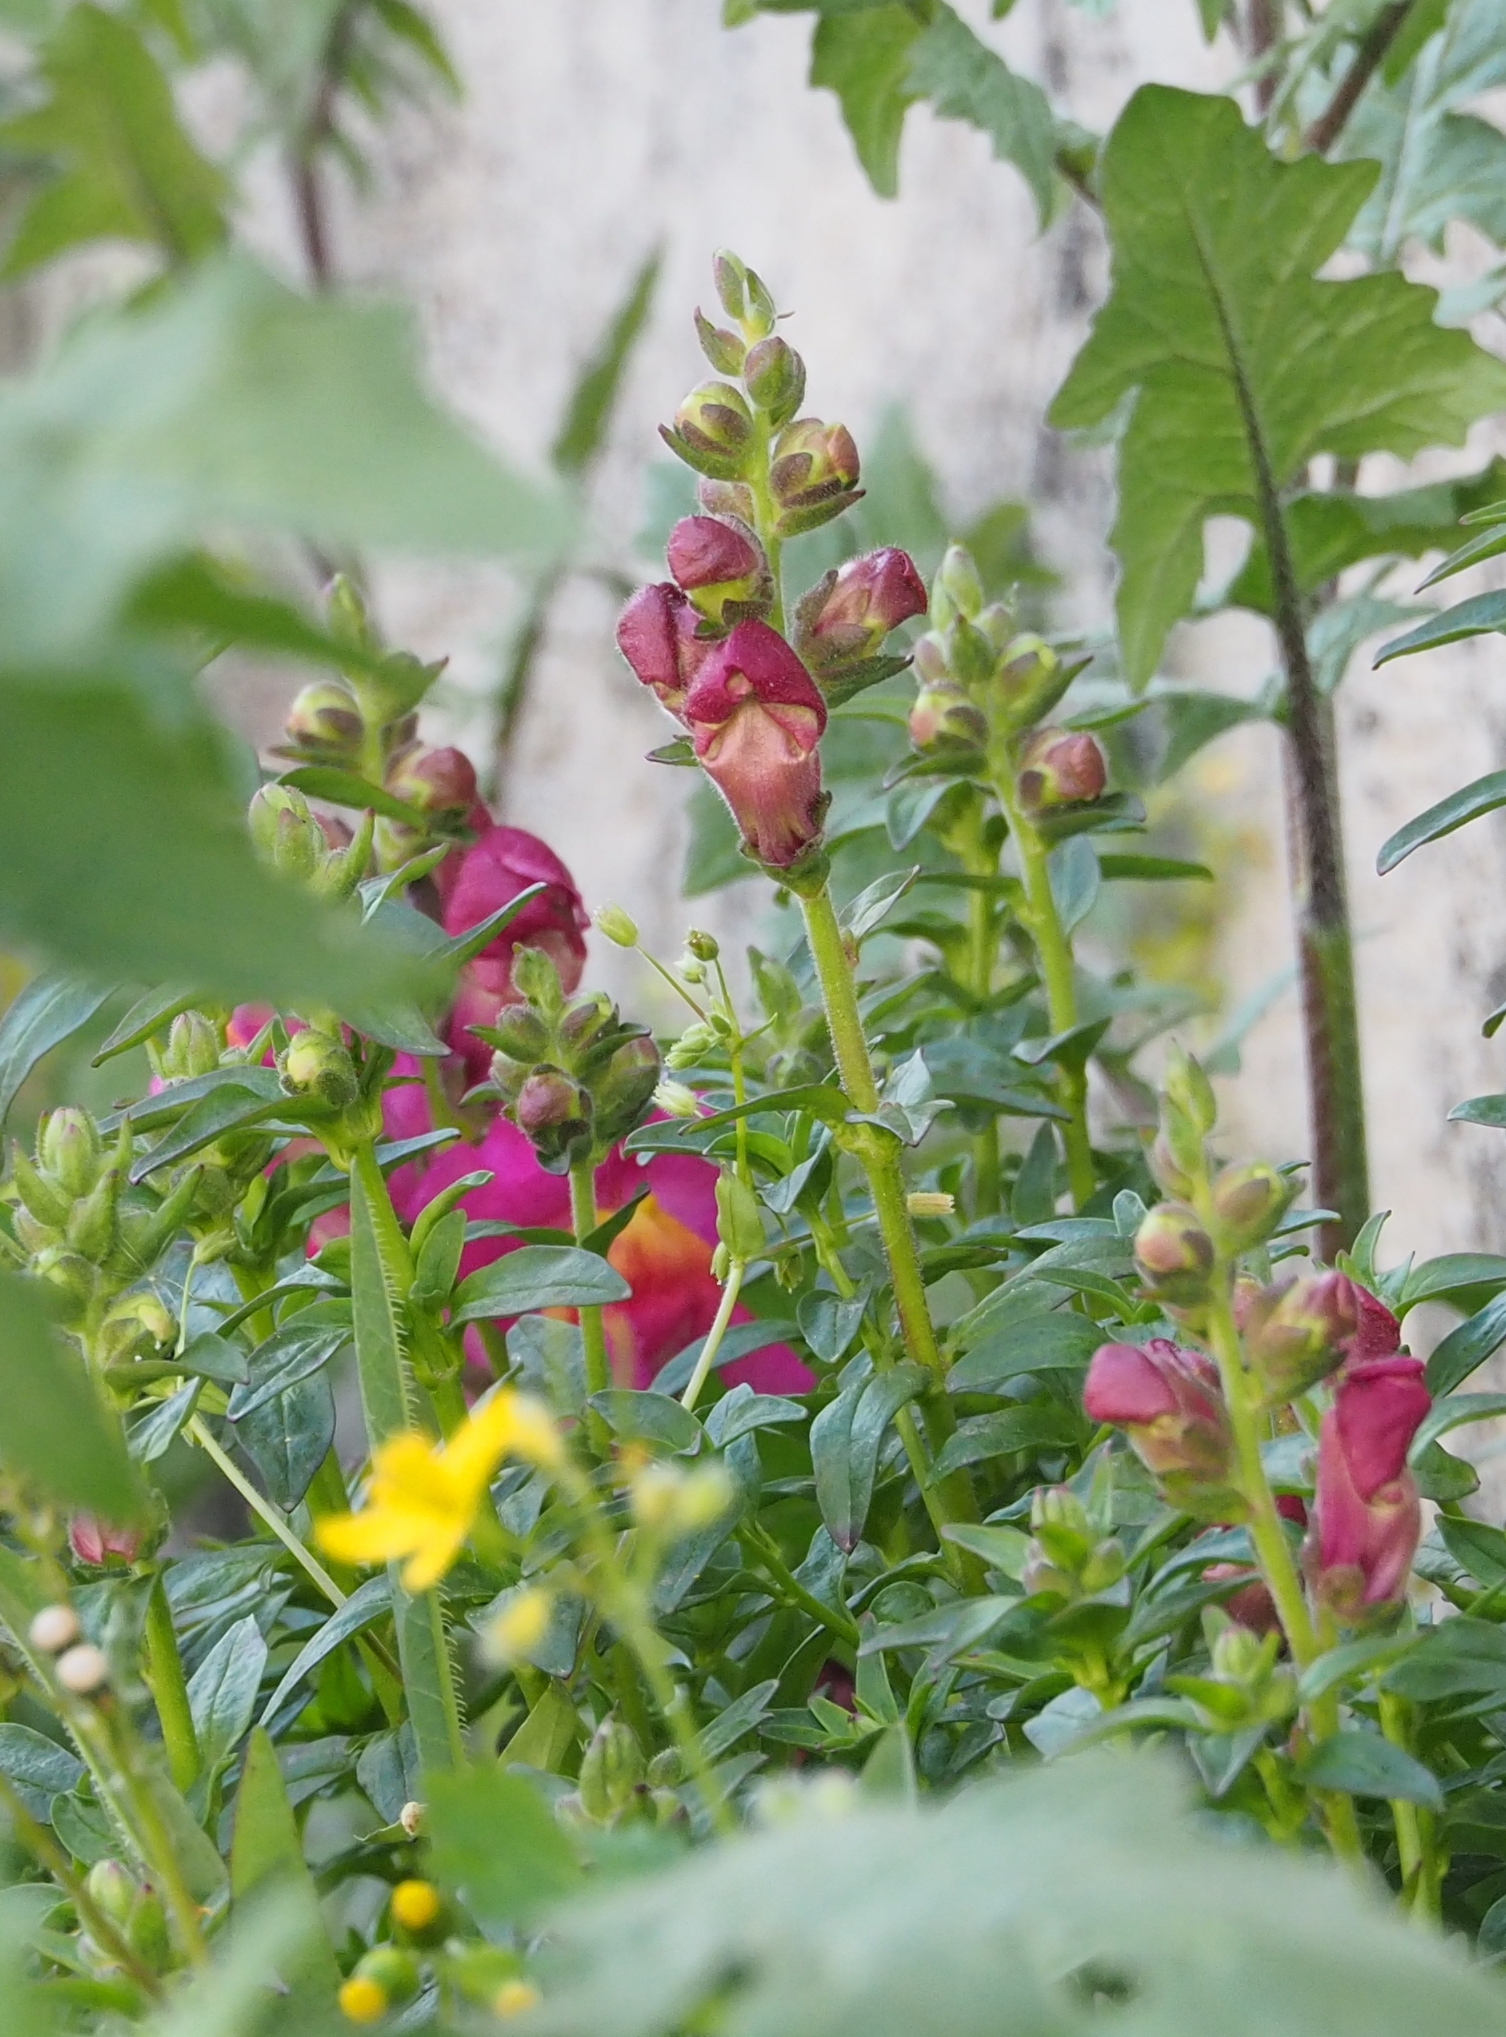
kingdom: Plantae
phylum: Tracheophyta
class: Magnoliopsida
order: Lamiales
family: Plantaginaceae
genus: Antirrhinum
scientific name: Antirrhinum majus
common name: Snapdragon
